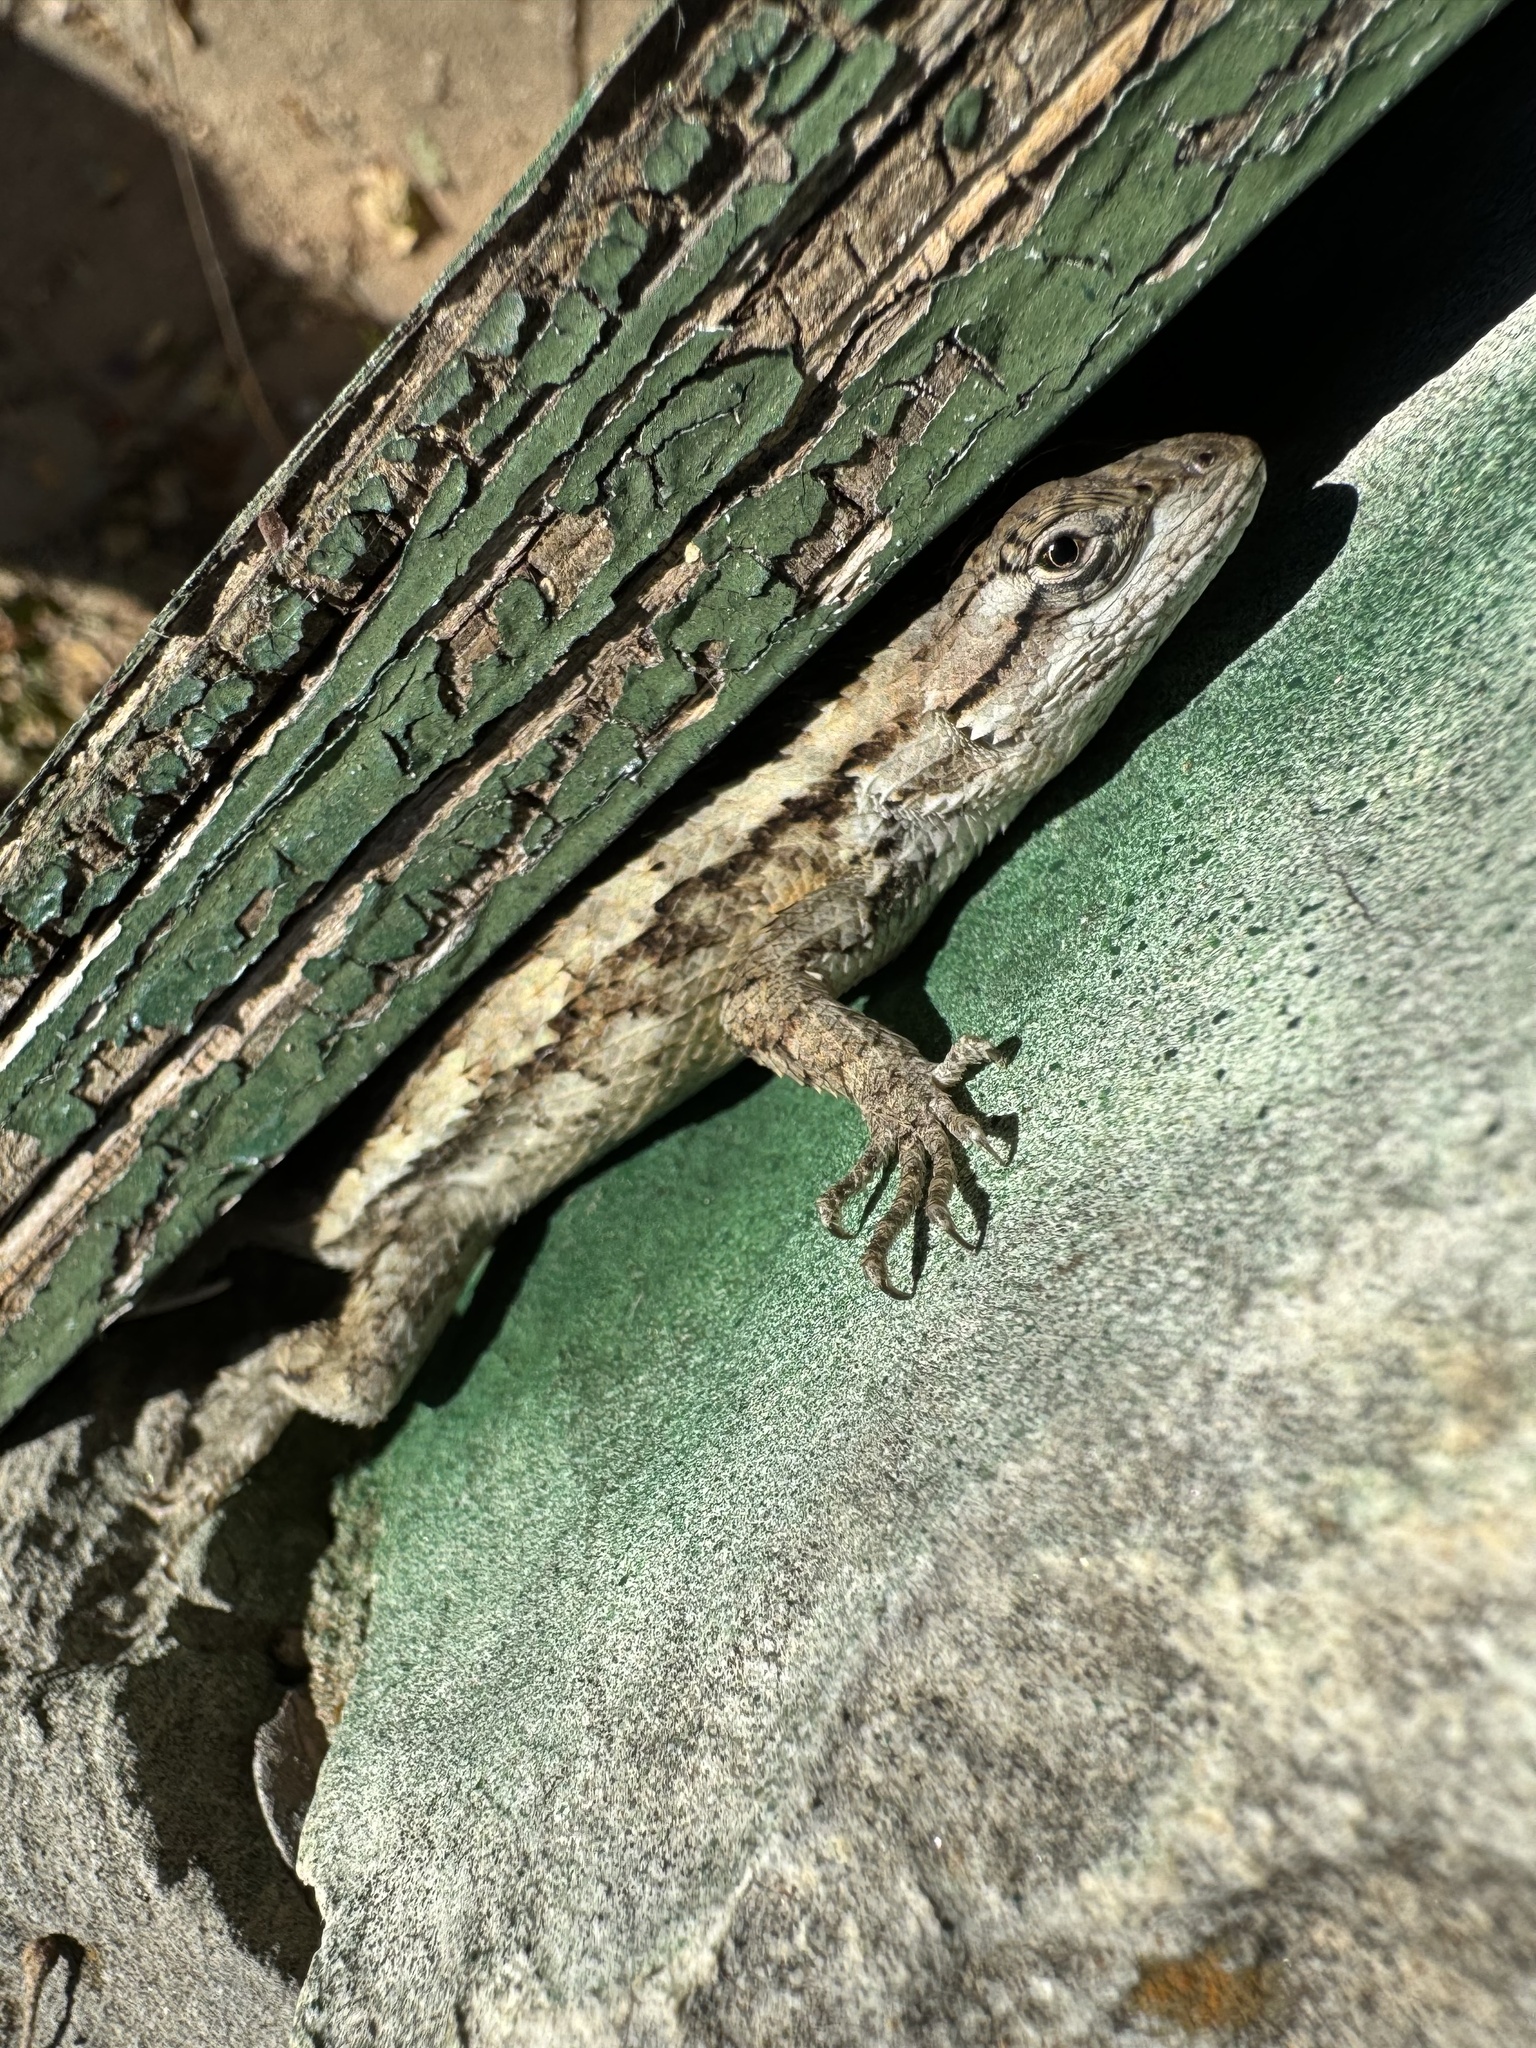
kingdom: Animalia
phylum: Chordata
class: Squamata
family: Phrynosomatidae
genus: Sceloporus
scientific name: Sceloporus olivaceus
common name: Texas spiny lizard
